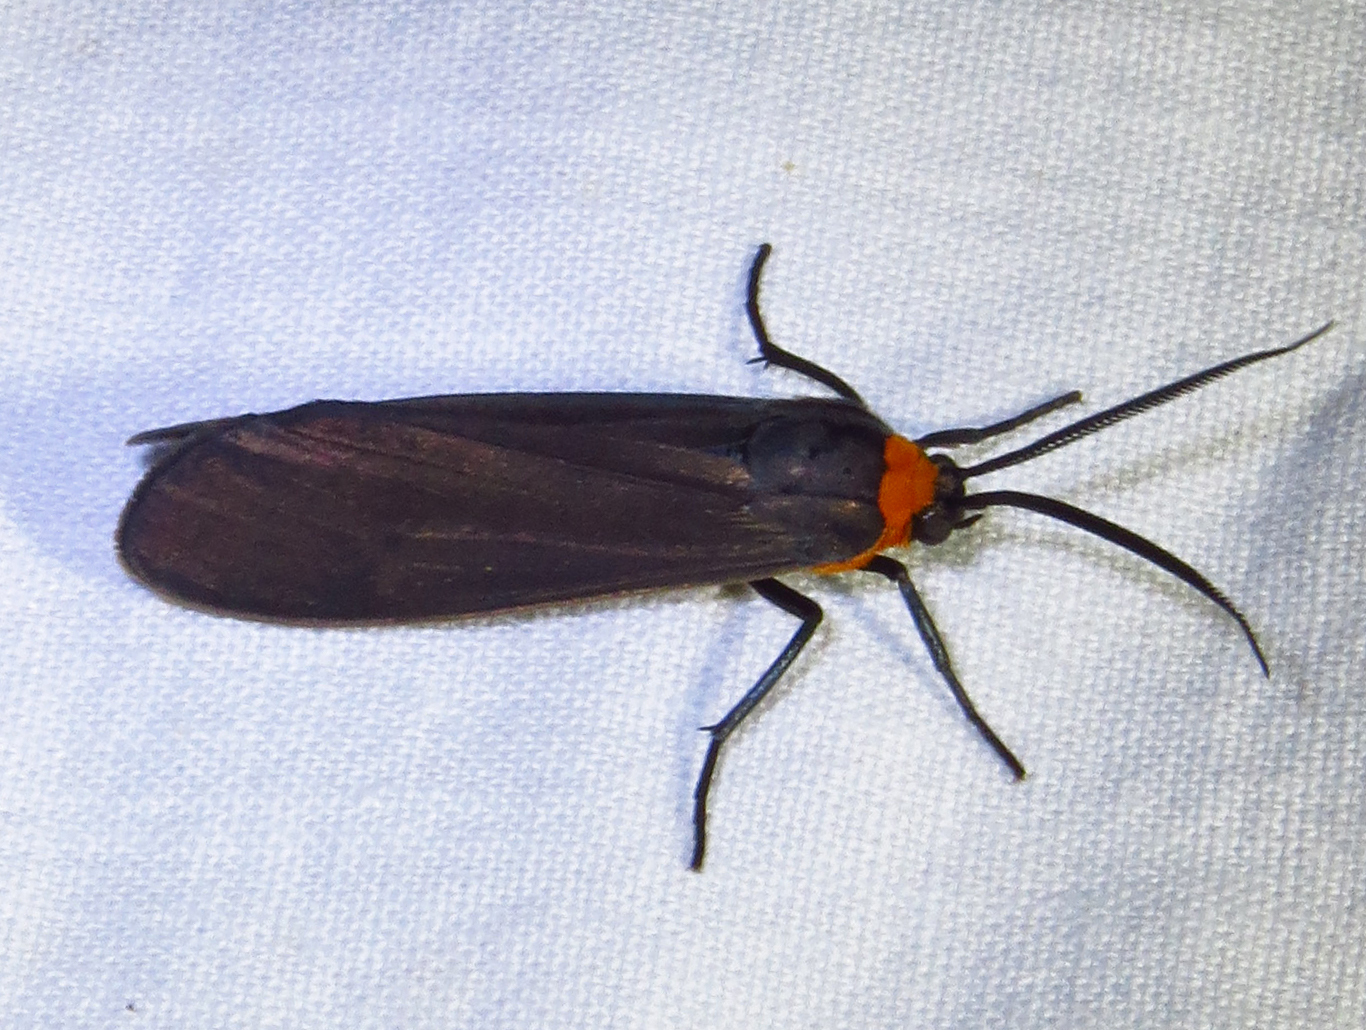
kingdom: Animalia
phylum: Arthropoda
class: Insecta
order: Lepidoptera
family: Erebidae
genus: Cisseps
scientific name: Cisseps fulvicollis
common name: Yellow-collared scape moth
